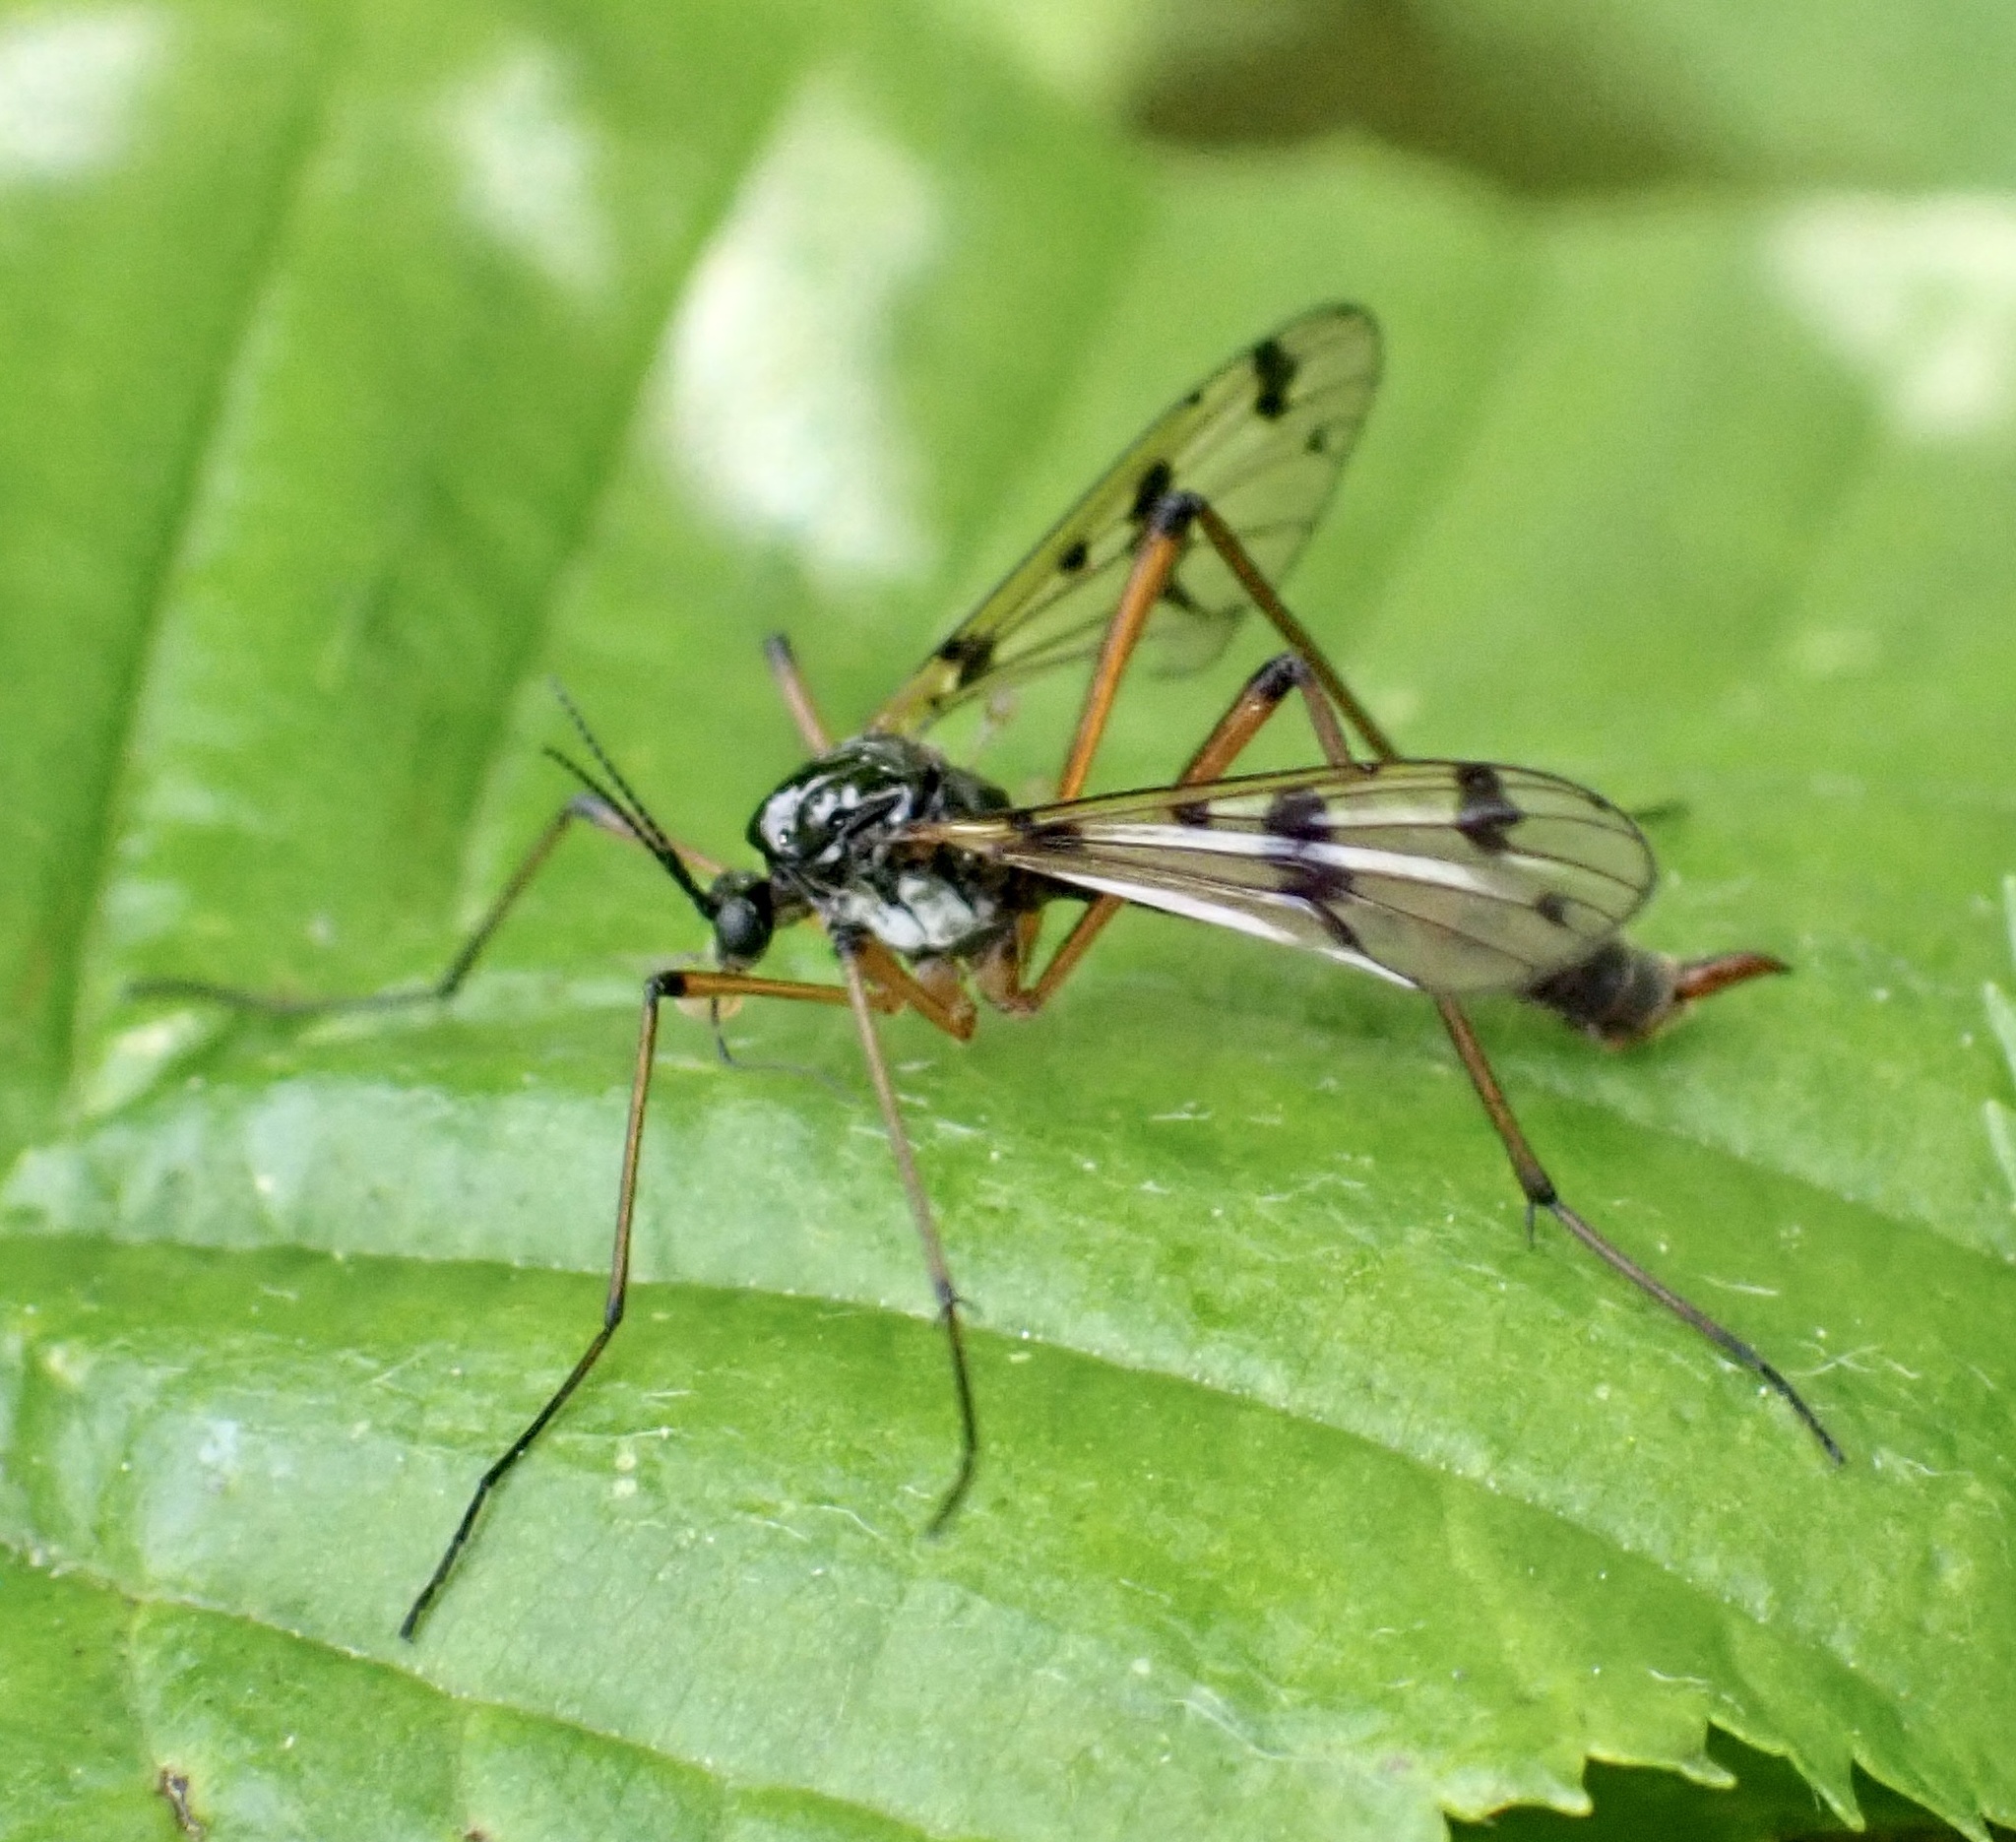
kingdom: Animalia
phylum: Arthropoda
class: Insecta
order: Diptera
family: Ptychopteridae
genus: Ptychoptera
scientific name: Ptychoptera contaminata
